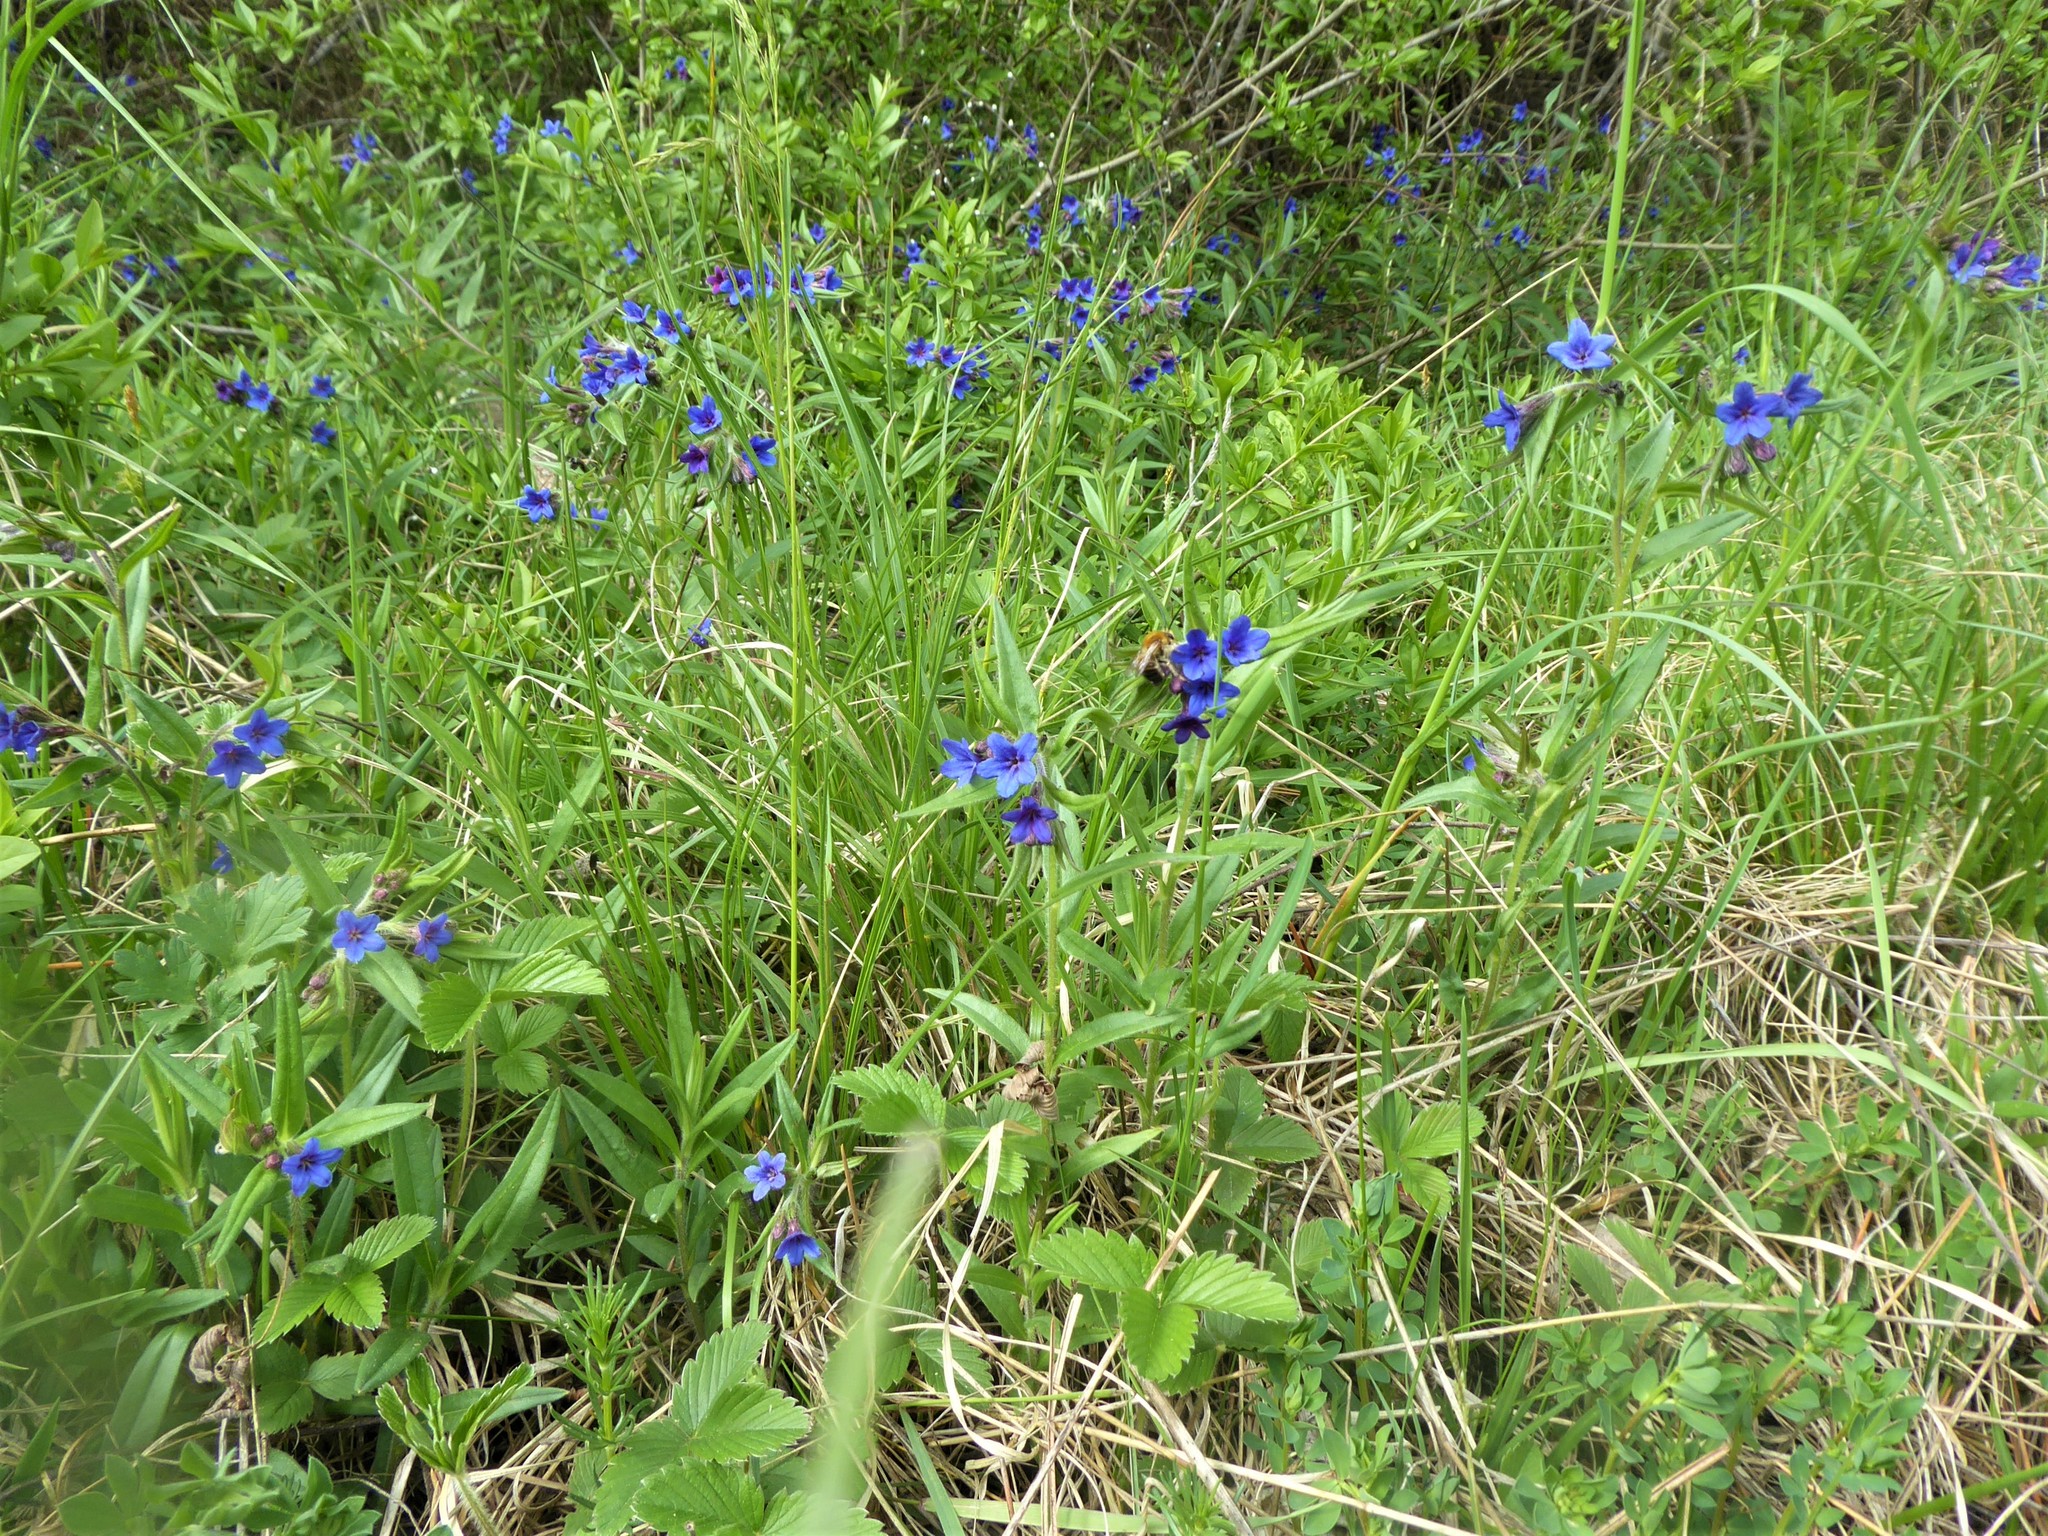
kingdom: Plantae
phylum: Tracheophyta
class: Magnoliopsida
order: Boraginales
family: Boraginaceae
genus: Aegonychon
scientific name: Aegonychon purpurocaeruleum
